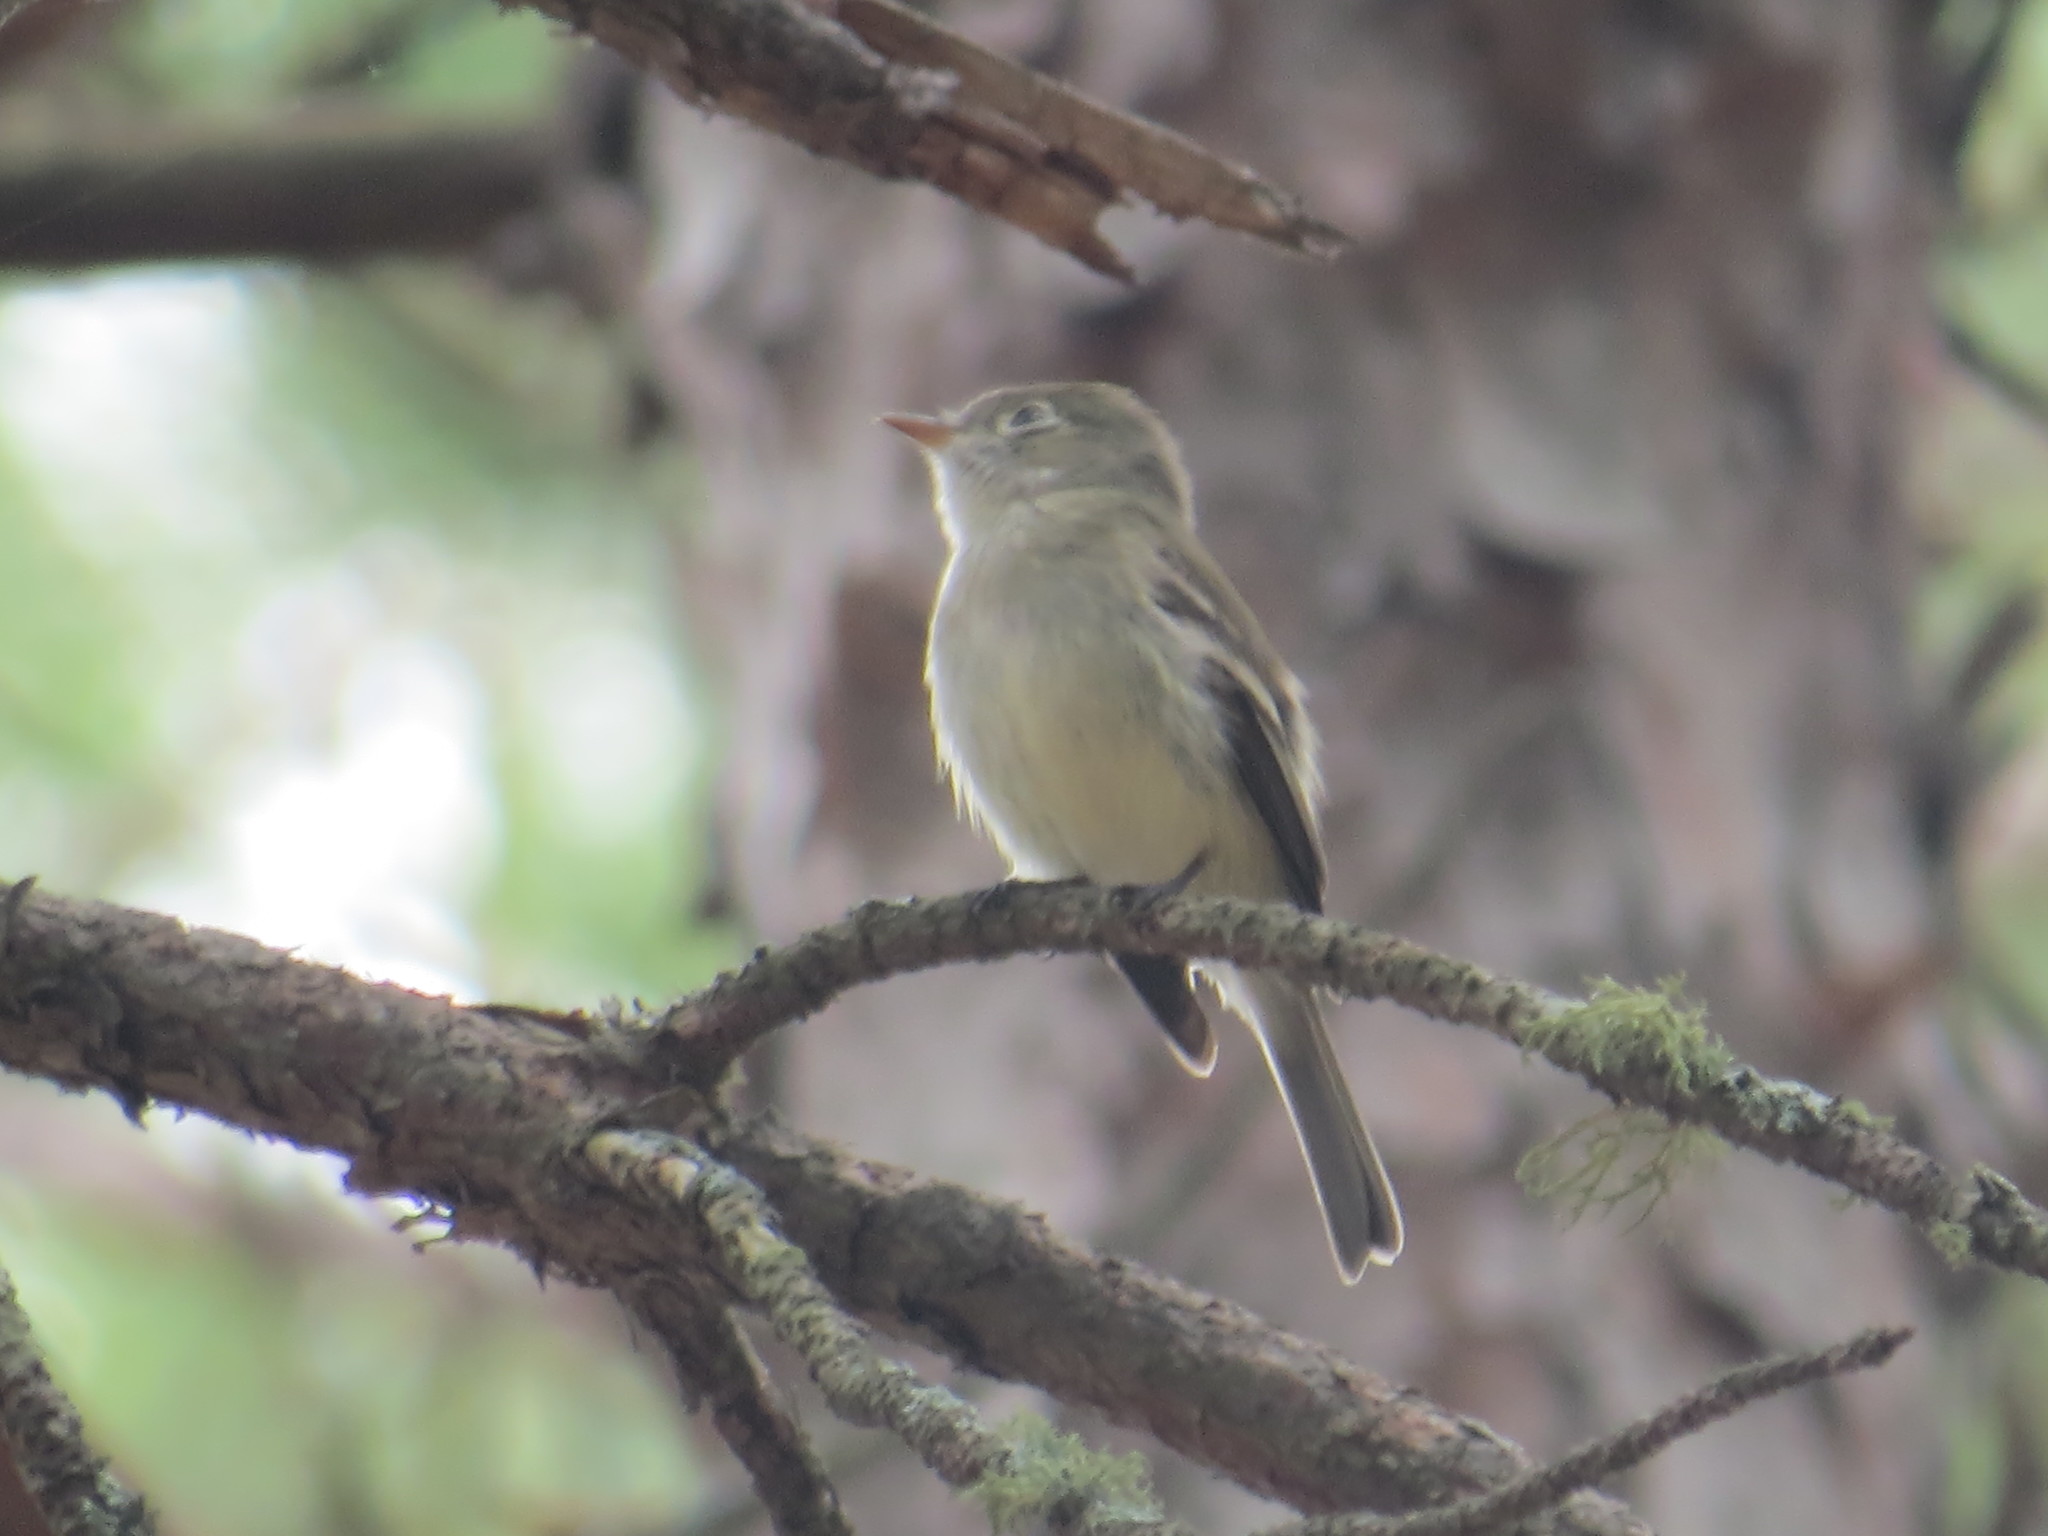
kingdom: Animalia
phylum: Chordata
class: Aves
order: Passeriformes
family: Tyrannidae
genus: Empidonax
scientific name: Empidonax minimus
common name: Least flycatcher
